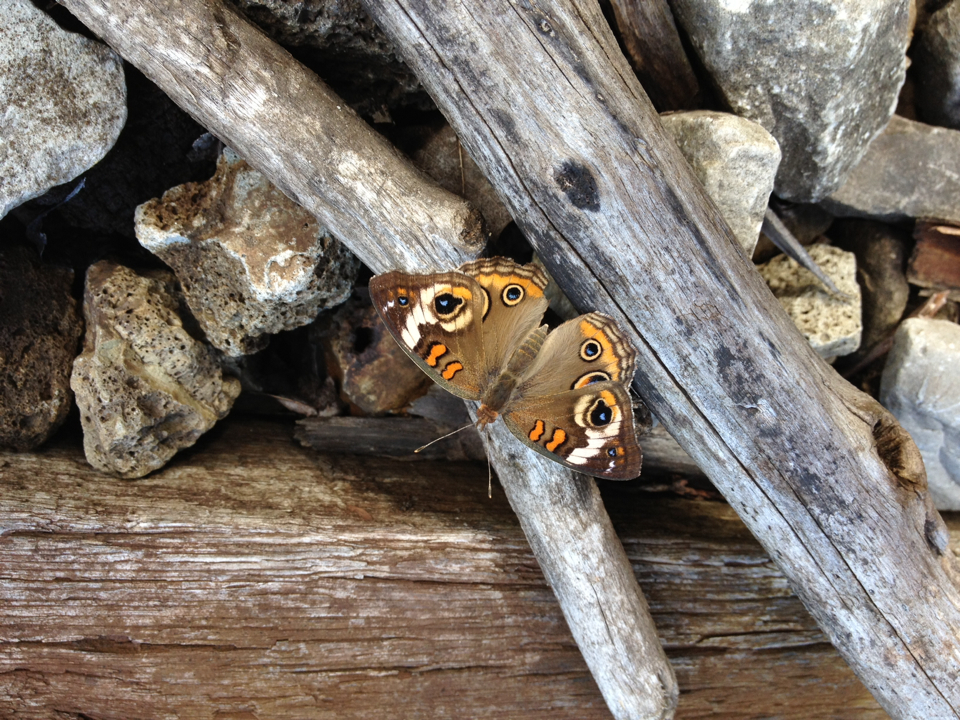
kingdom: Animalia
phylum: Arthropoda
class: Insecta
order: Lepidoptera
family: Nymphalidae
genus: Junonia
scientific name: Junonia coenia
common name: Common buckeye
